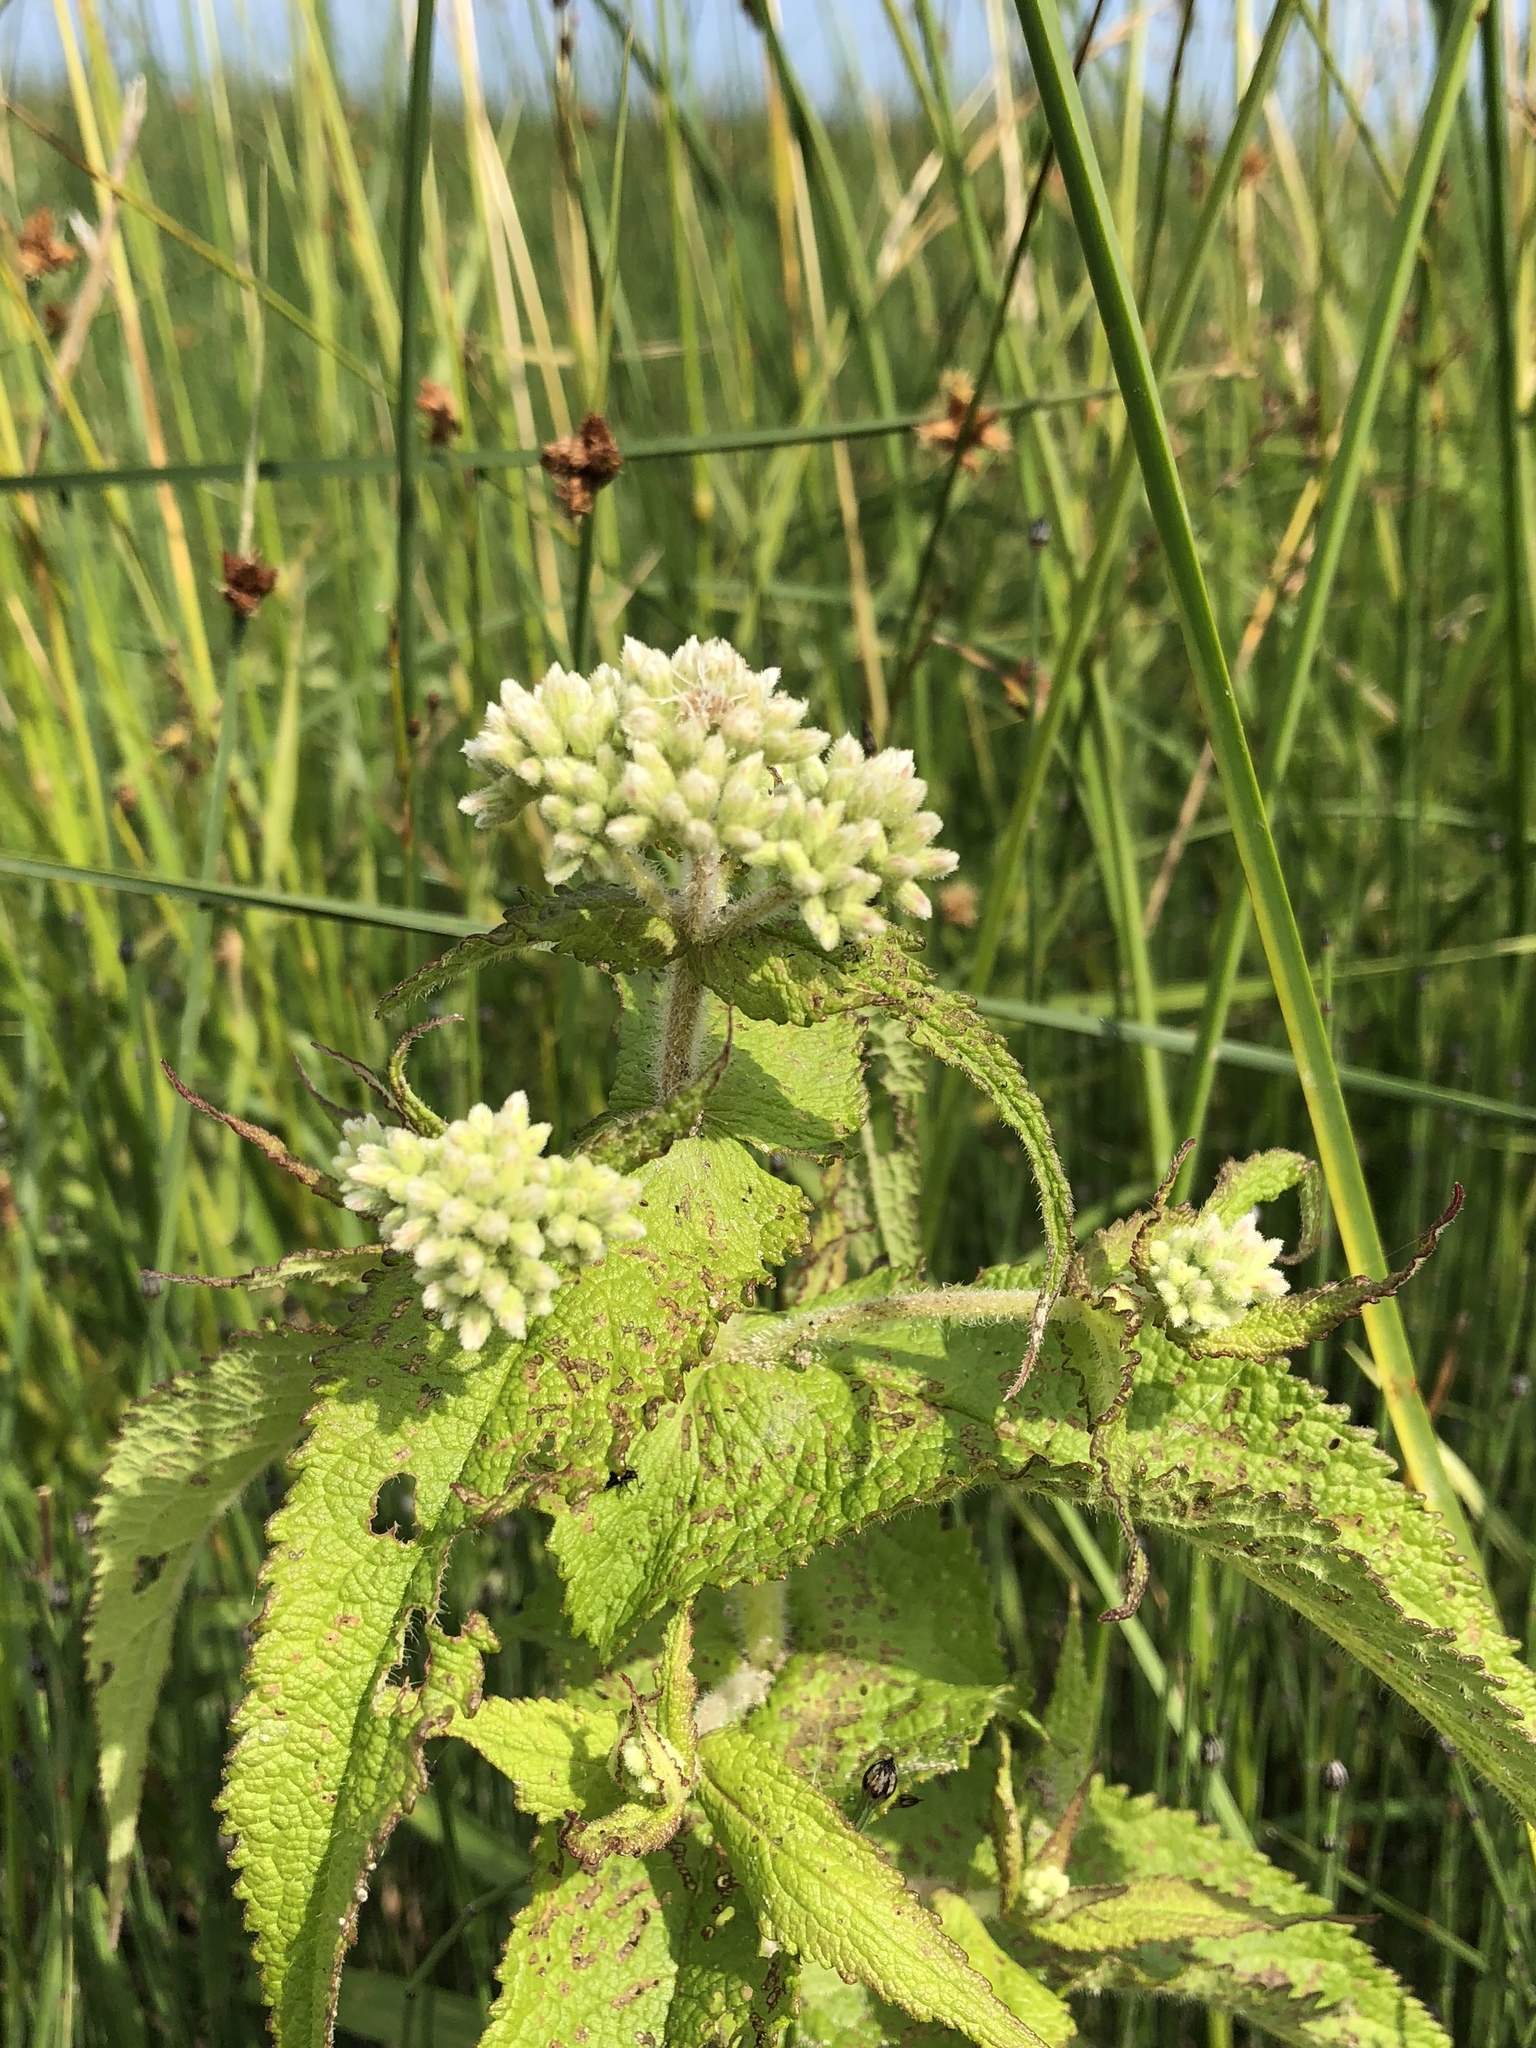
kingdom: Plantae
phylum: Tracheophyta
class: Magnoliopsida
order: Asterales
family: Asteraceae
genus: Eupatorium
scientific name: Eupatorium perfoliatum
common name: Boneset
